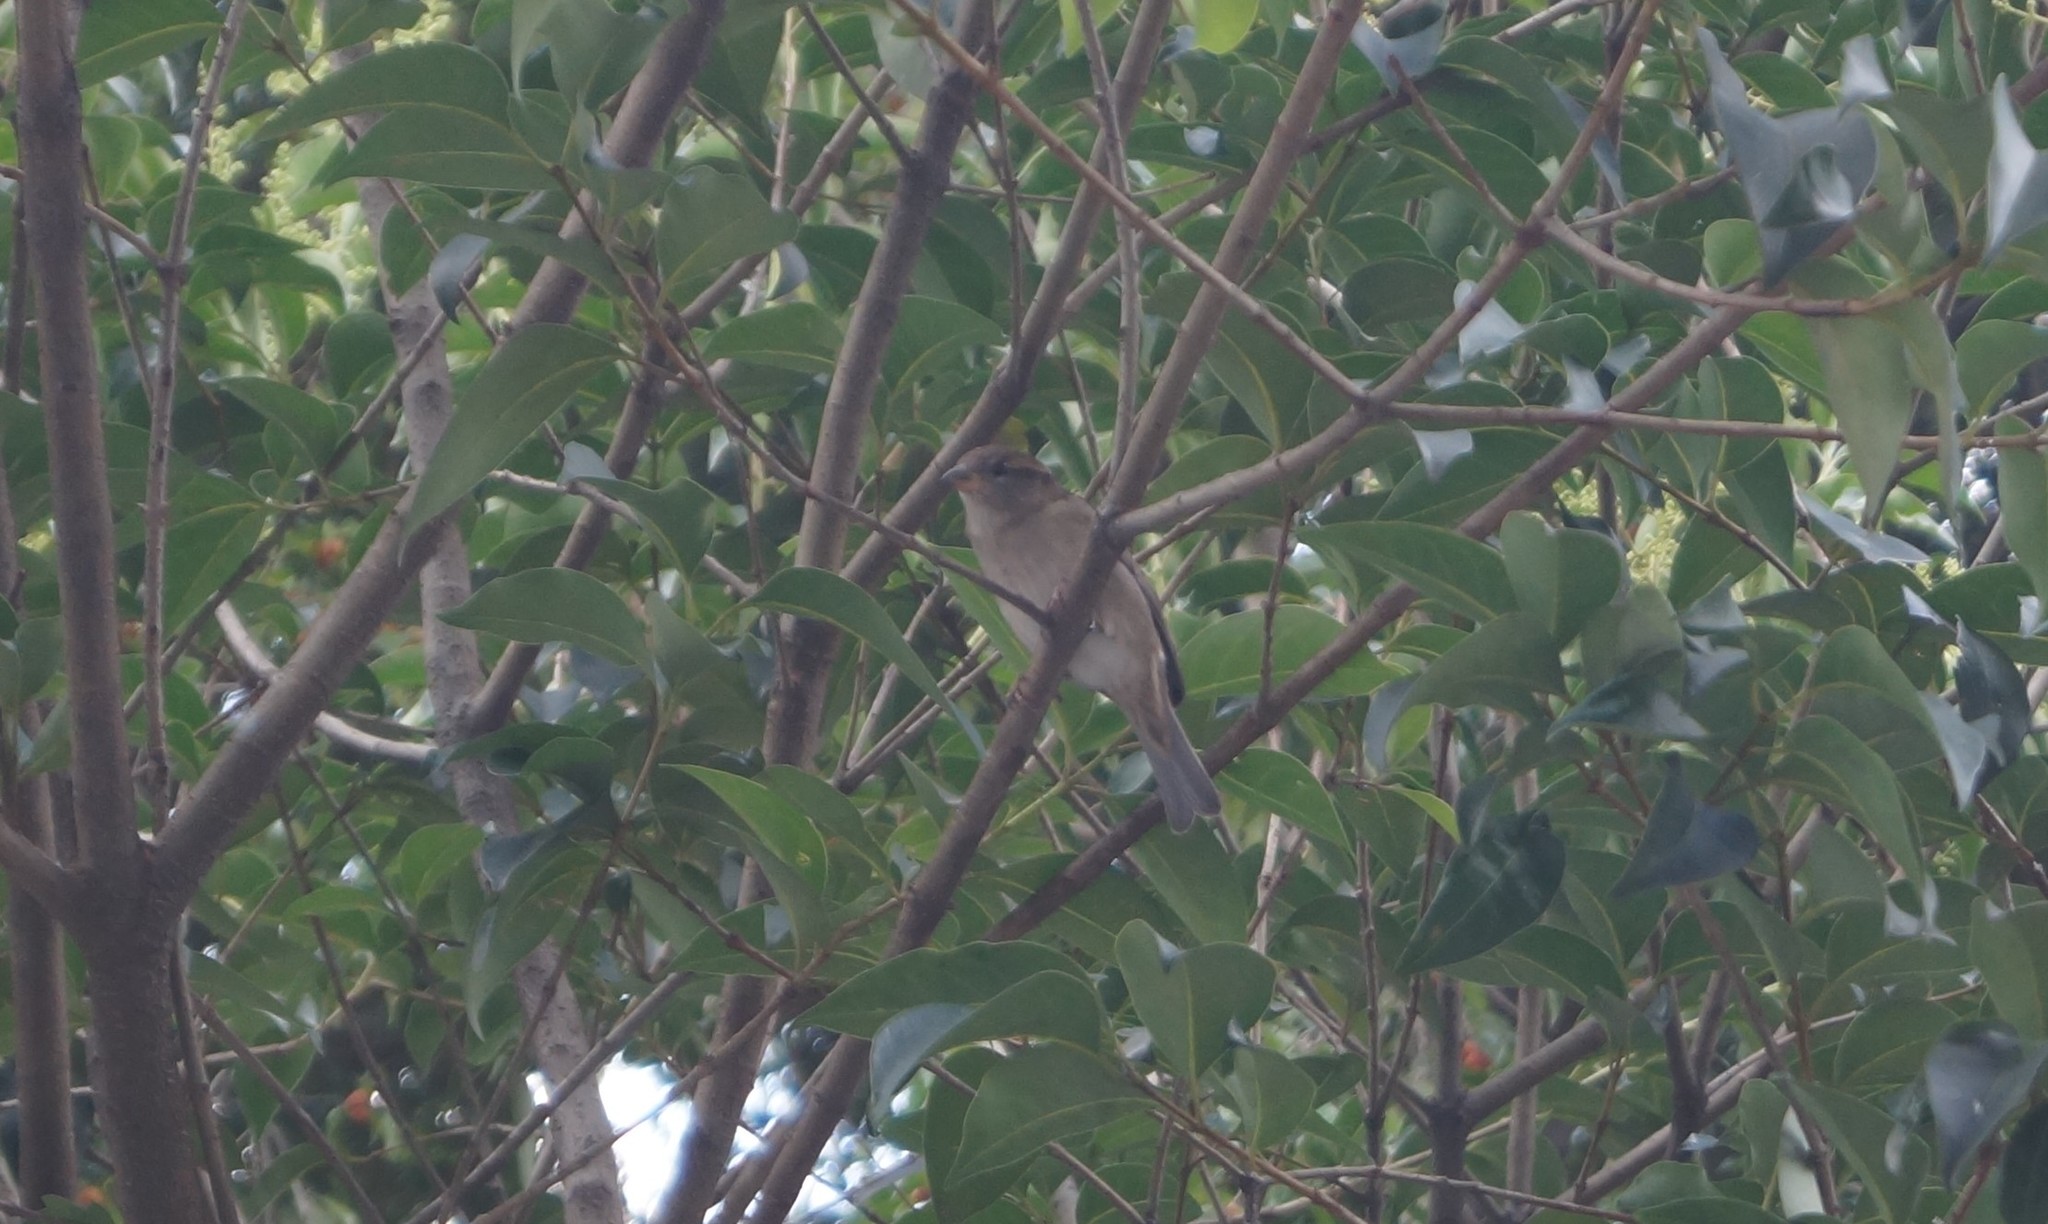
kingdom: Animalia
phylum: Chordata
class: Aves
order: Passeriformes
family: Passeridae
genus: Passer
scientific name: Passer domesticus
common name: House sparrow
